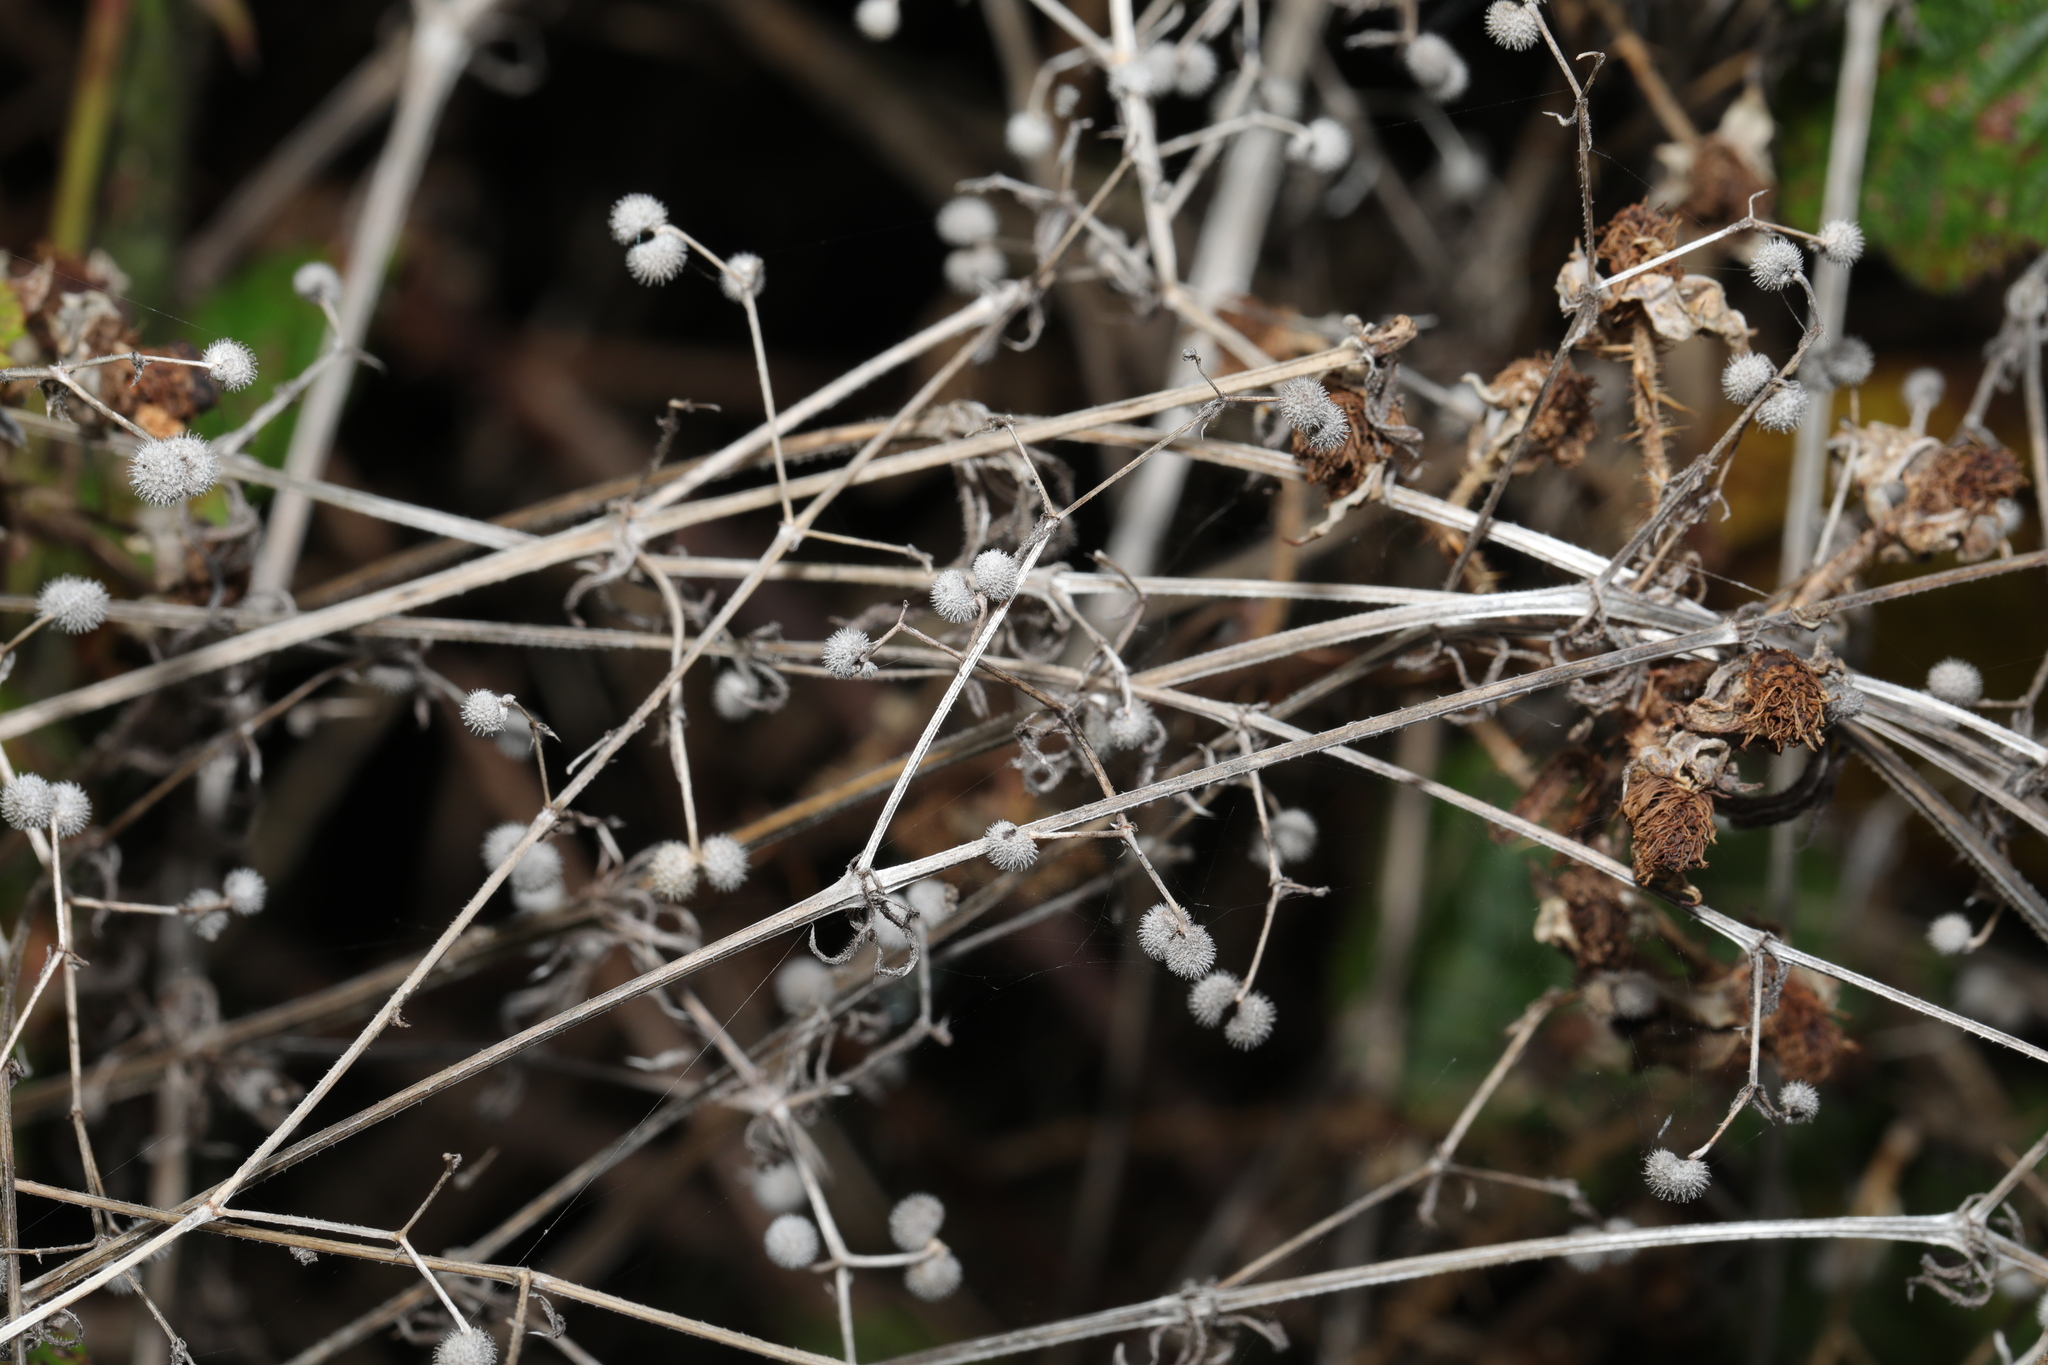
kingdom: Plantae
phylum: Tracheophyta
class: Magnoliopsida
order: Gentianales
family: Rubiaceae
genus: Galium
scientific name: Galium aparine
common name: Cleavers
